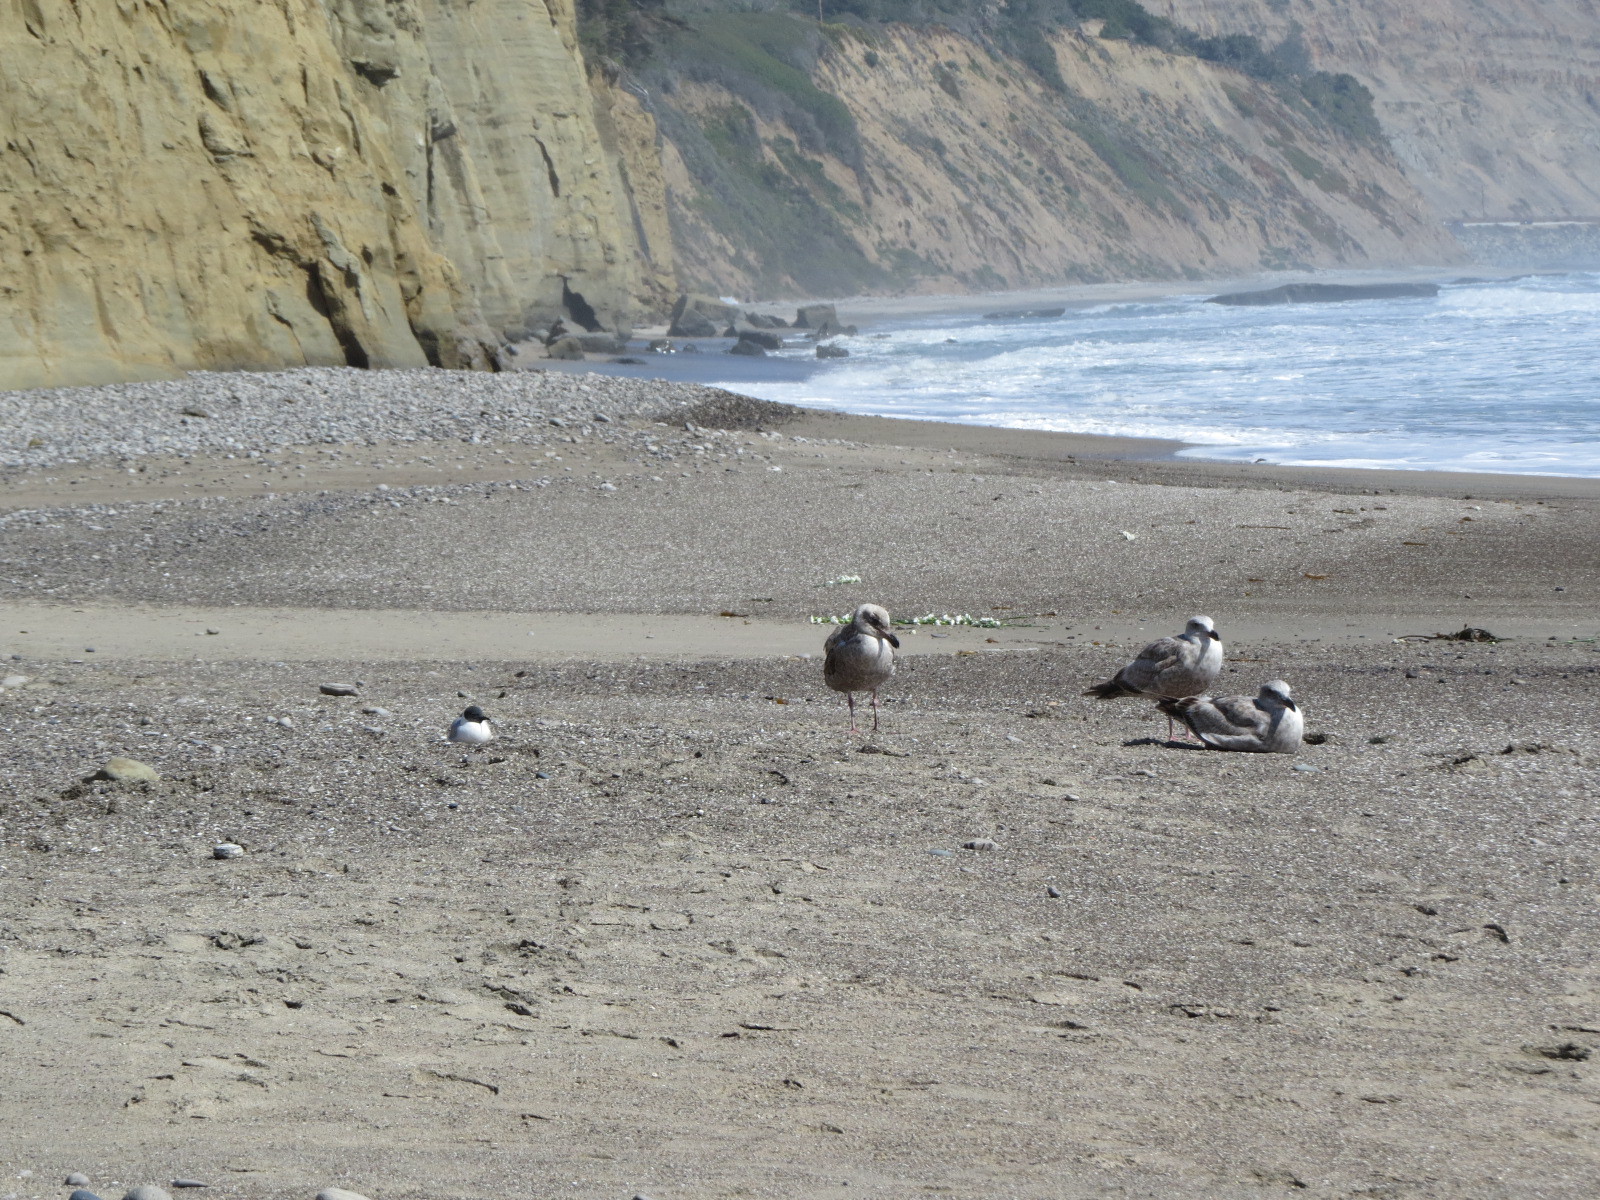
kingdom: Animalia
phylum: Chordata
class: Aves
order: Charadriiformes
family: Laridae
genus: Chroicocephalus
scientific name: Chroicocephalus philadelphia
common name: Bonaparte's gull
